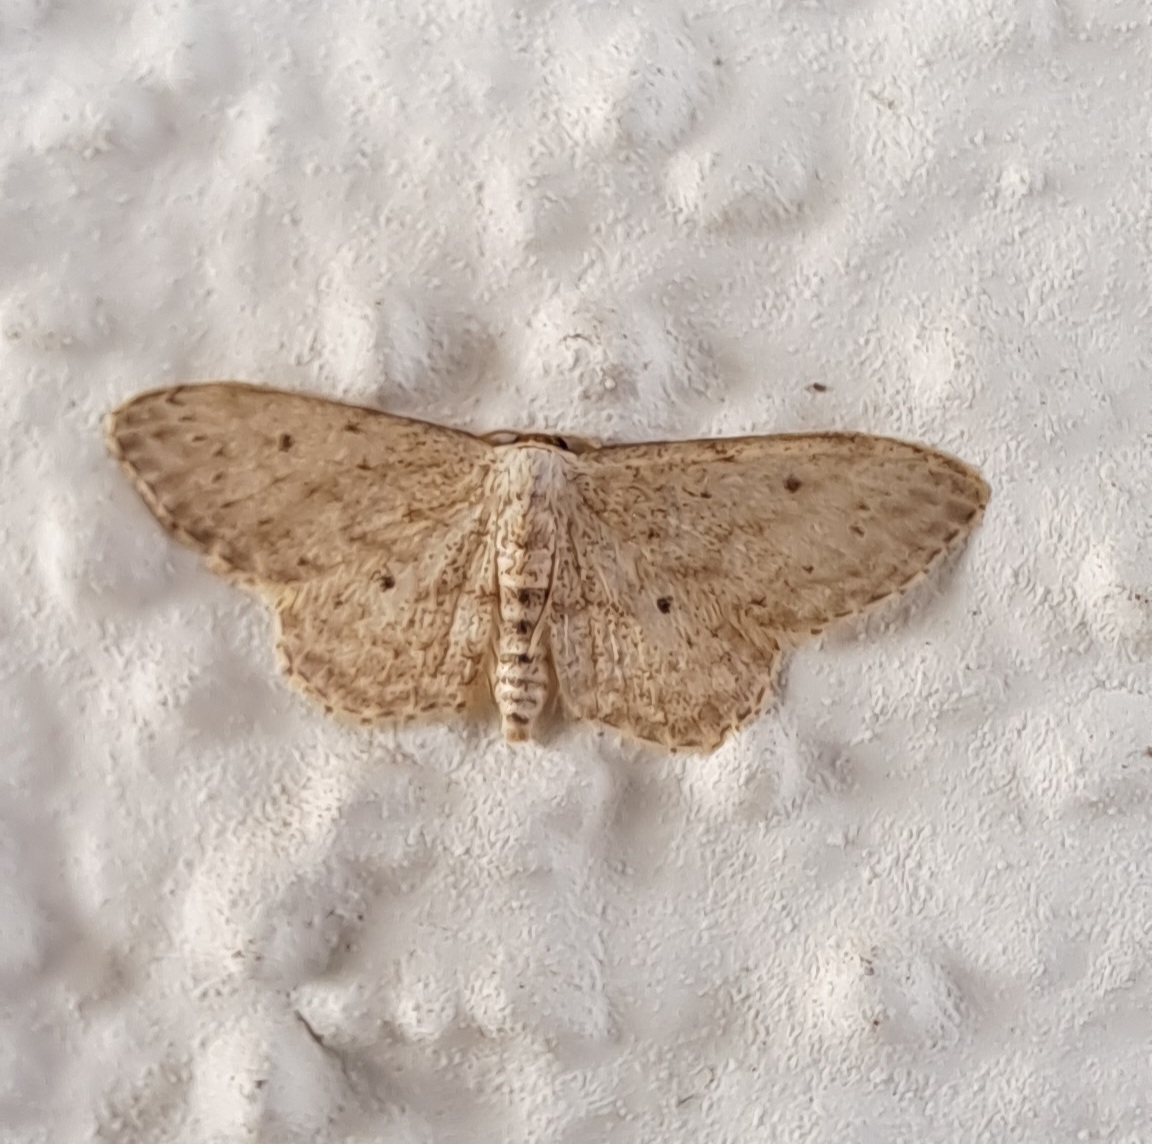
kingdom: Animalia
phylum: Arthropoda
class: Insecta
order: Lepidoptera
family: Geometridae
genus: Idaea
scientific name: Idaea seriata
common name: Small dusty wave
